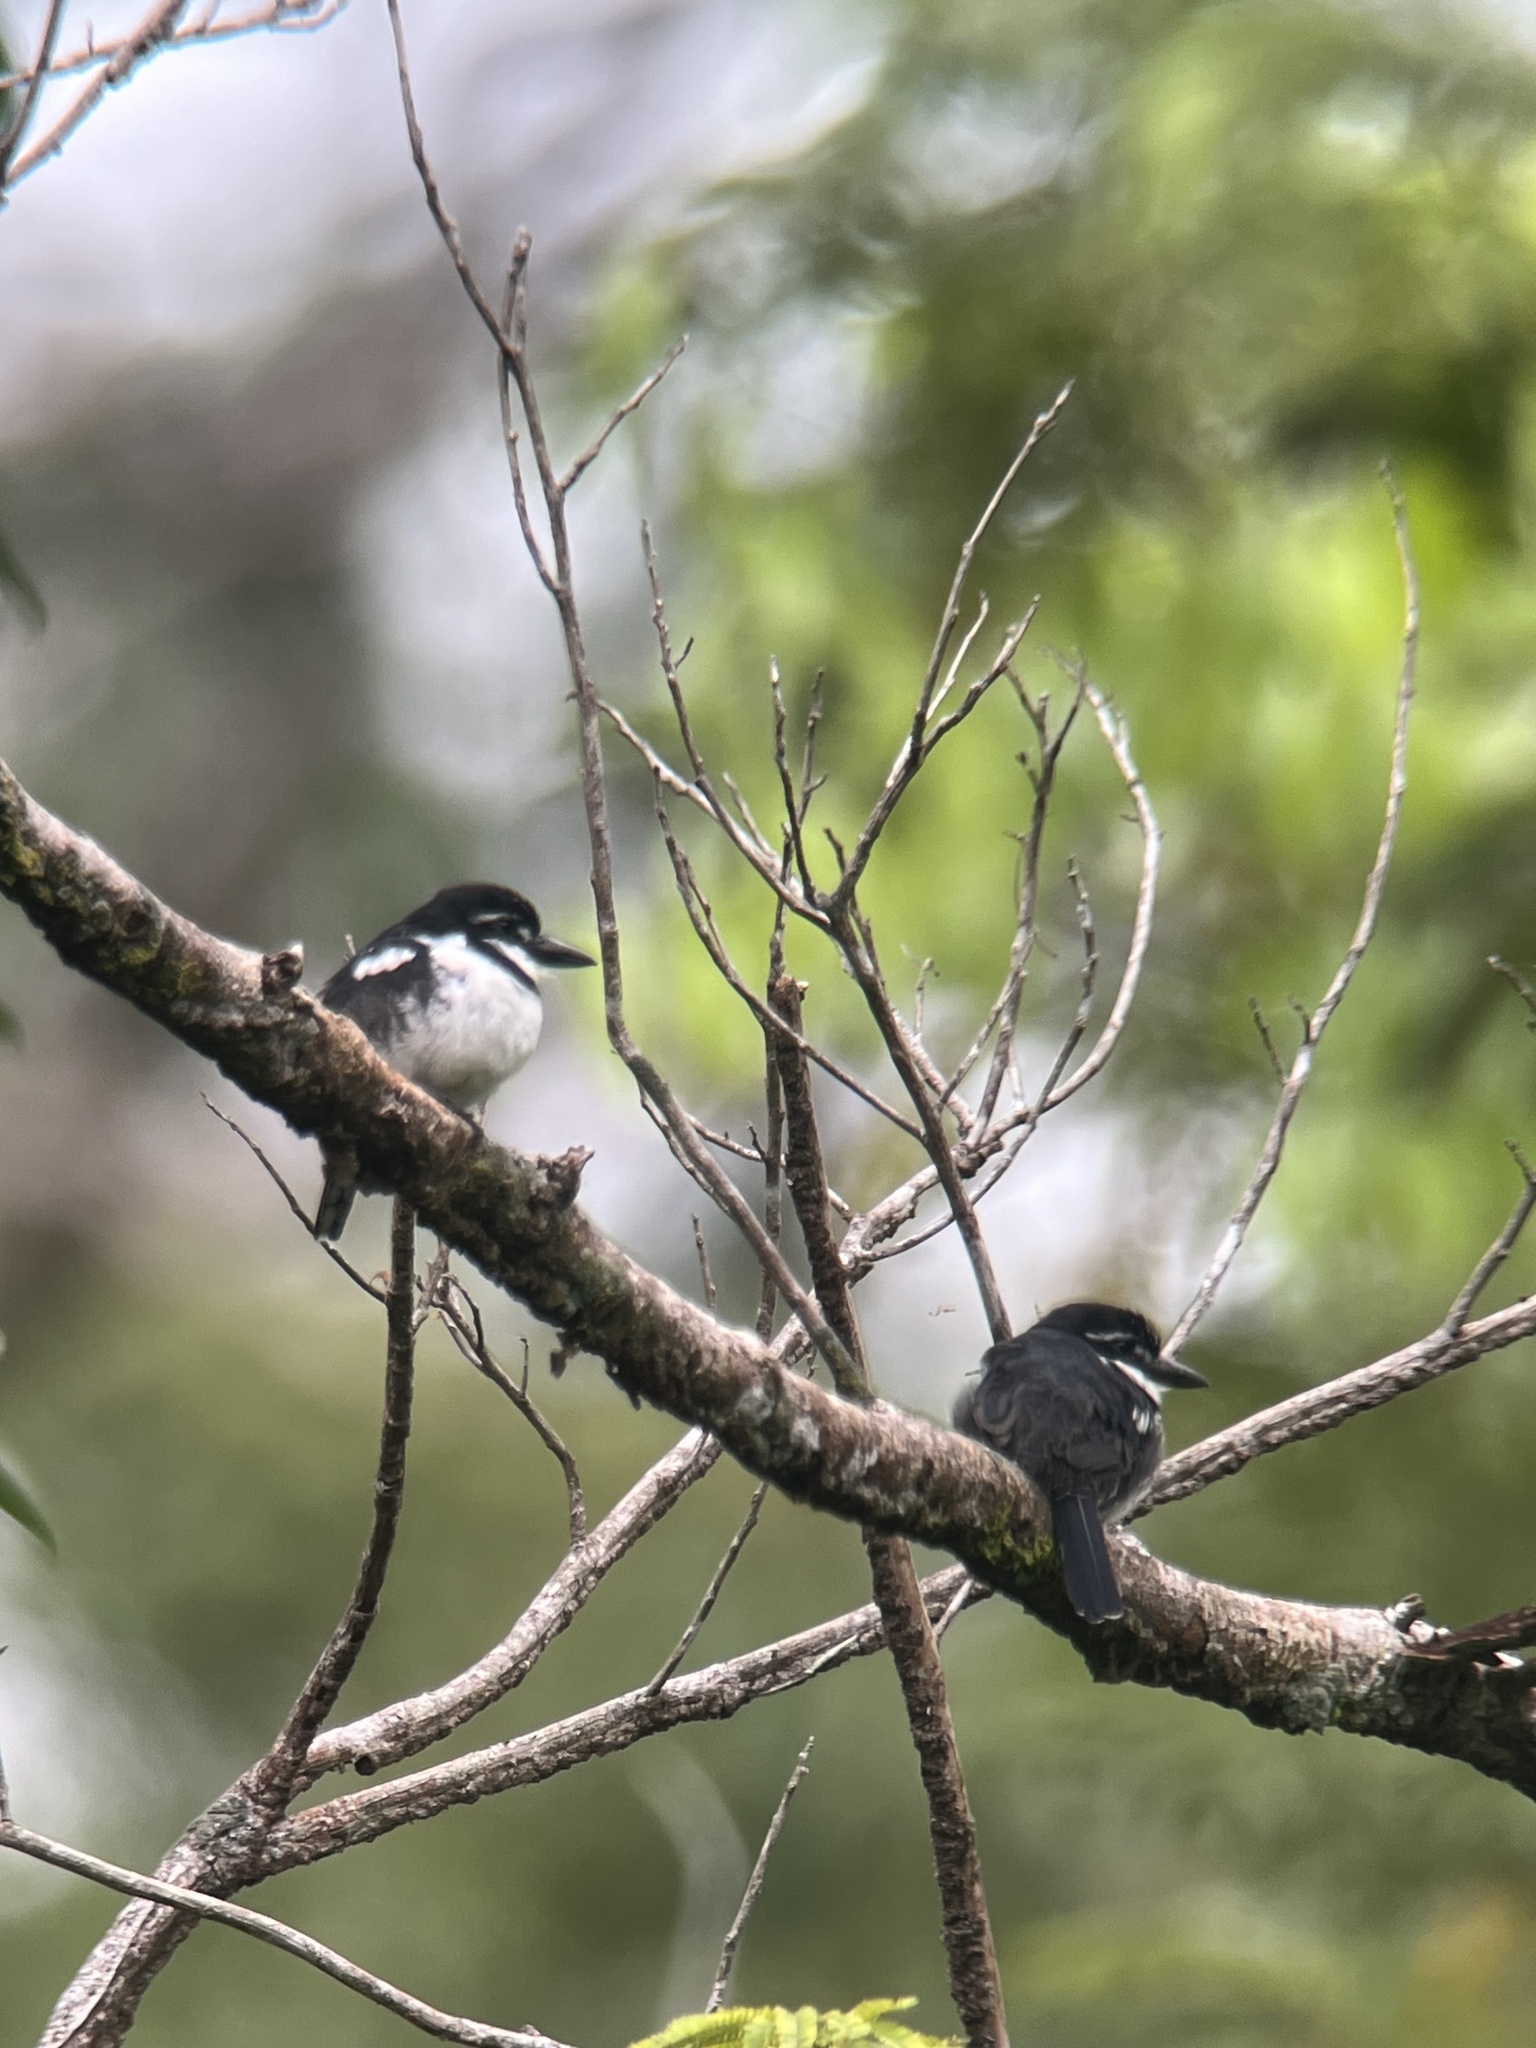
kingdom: Animalia
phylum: Chordata
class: Aves
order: Piciformes
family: Bucconidae
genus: Notharchus
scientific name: Notharchus tectus
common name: Pied puffbird
